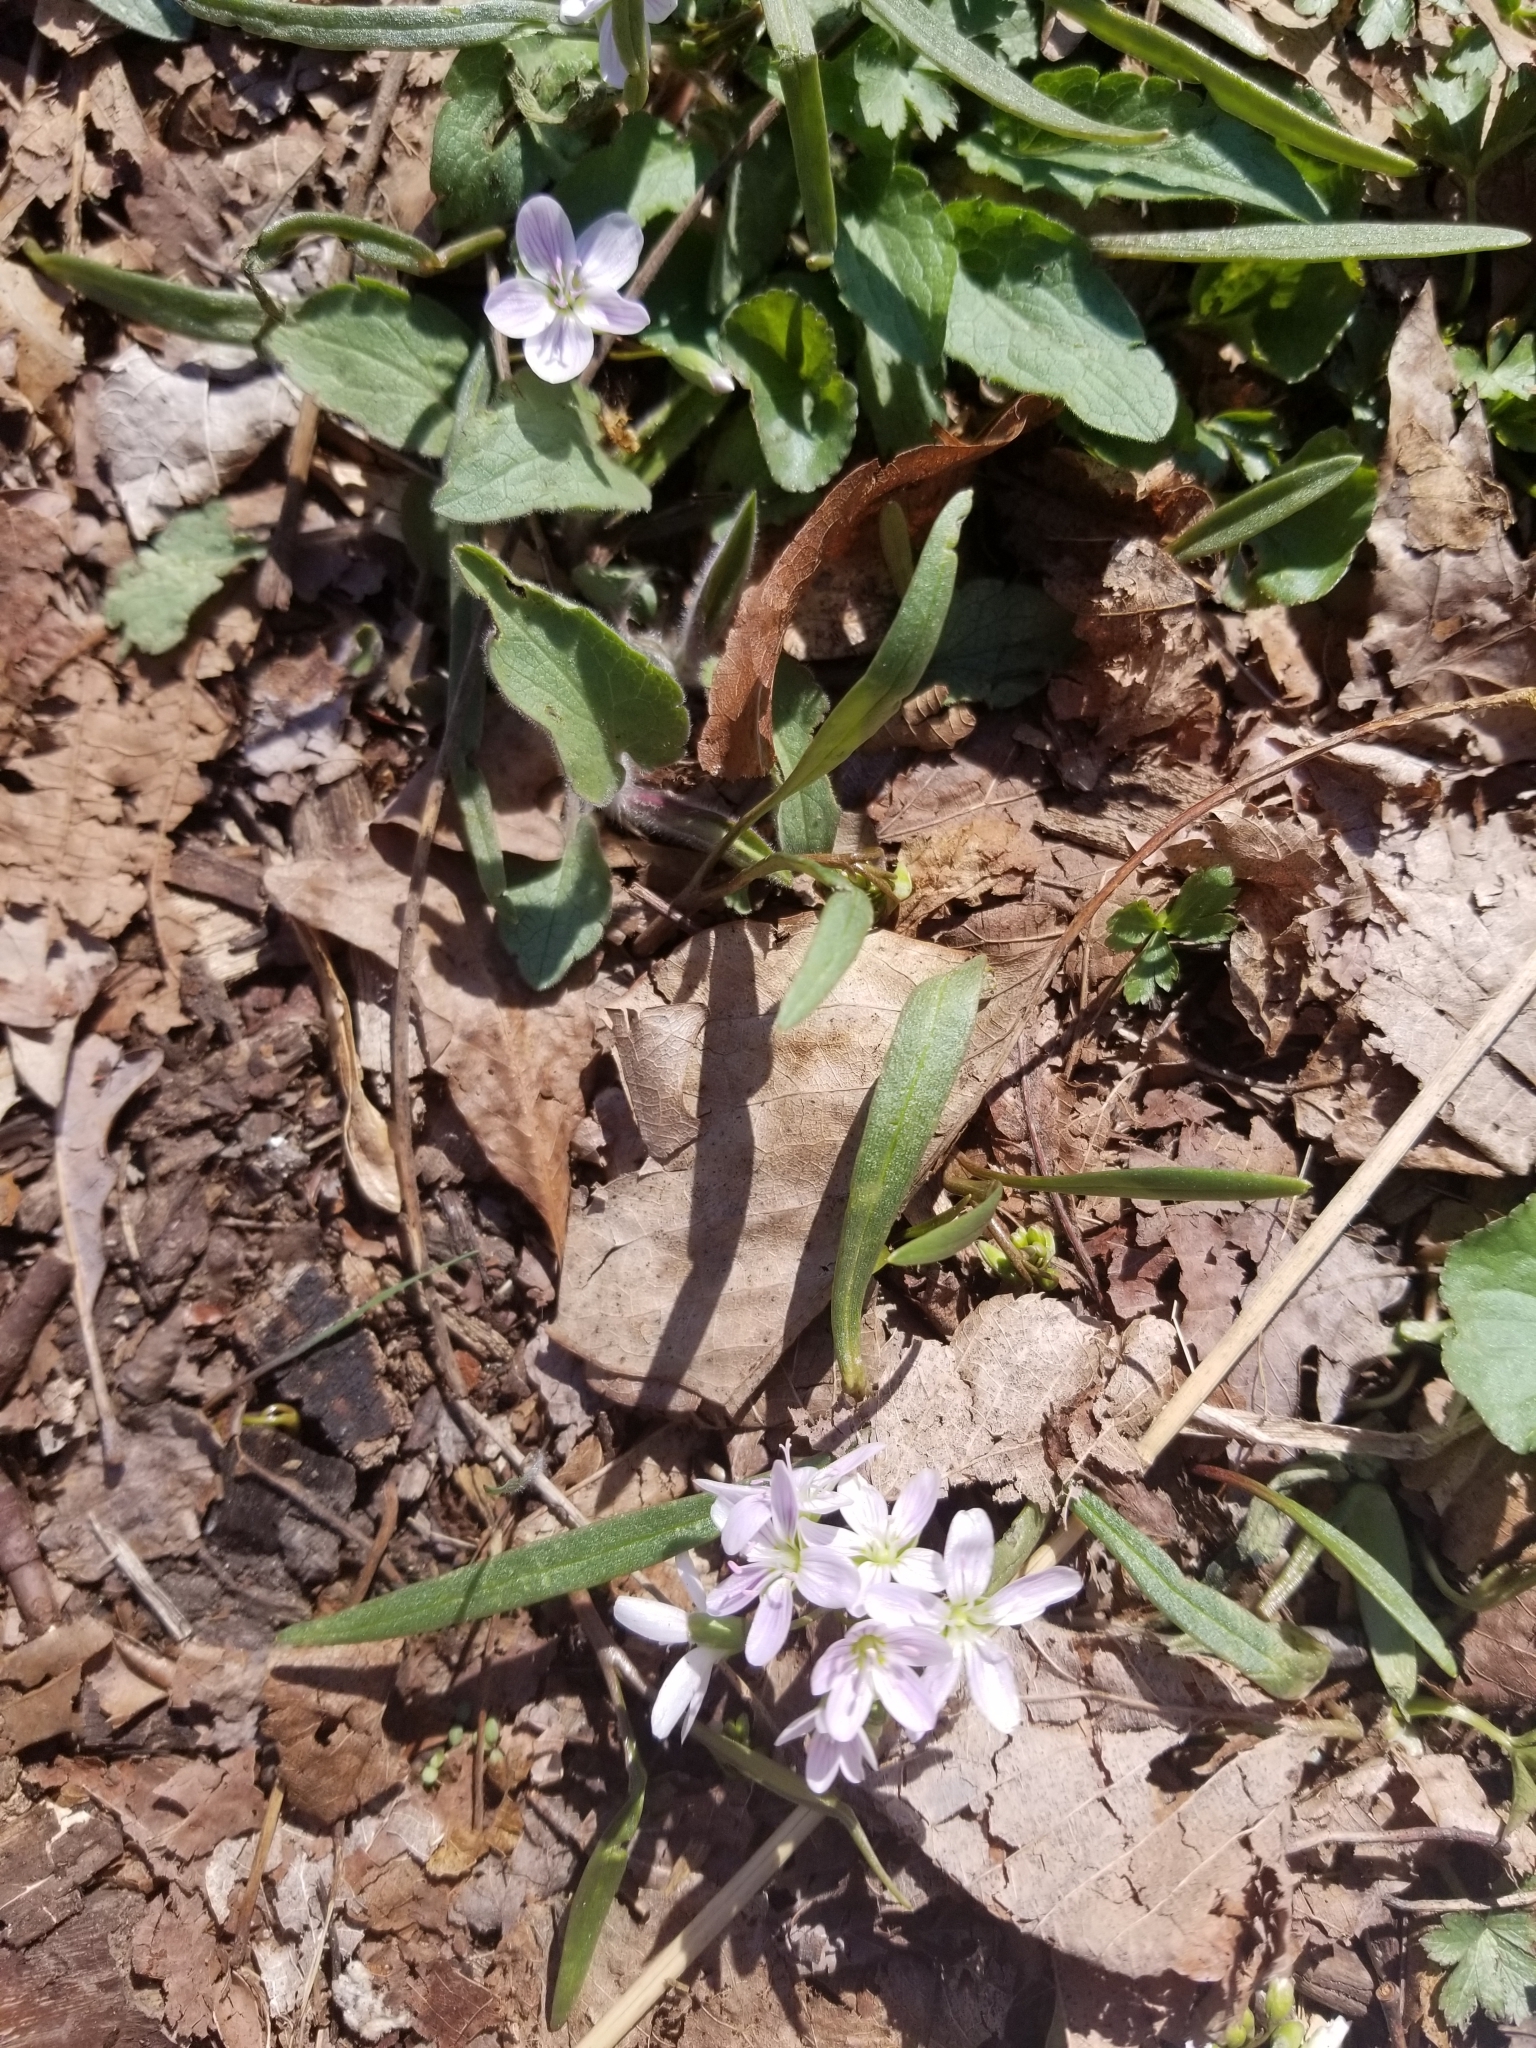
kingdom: Plantae
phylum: Tracheophyta
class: Magnoliopsida
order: Caryophyllales
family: Montiaceae
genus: Claytonia
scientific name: Claytonia virginica
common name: Virginia springbeauty
